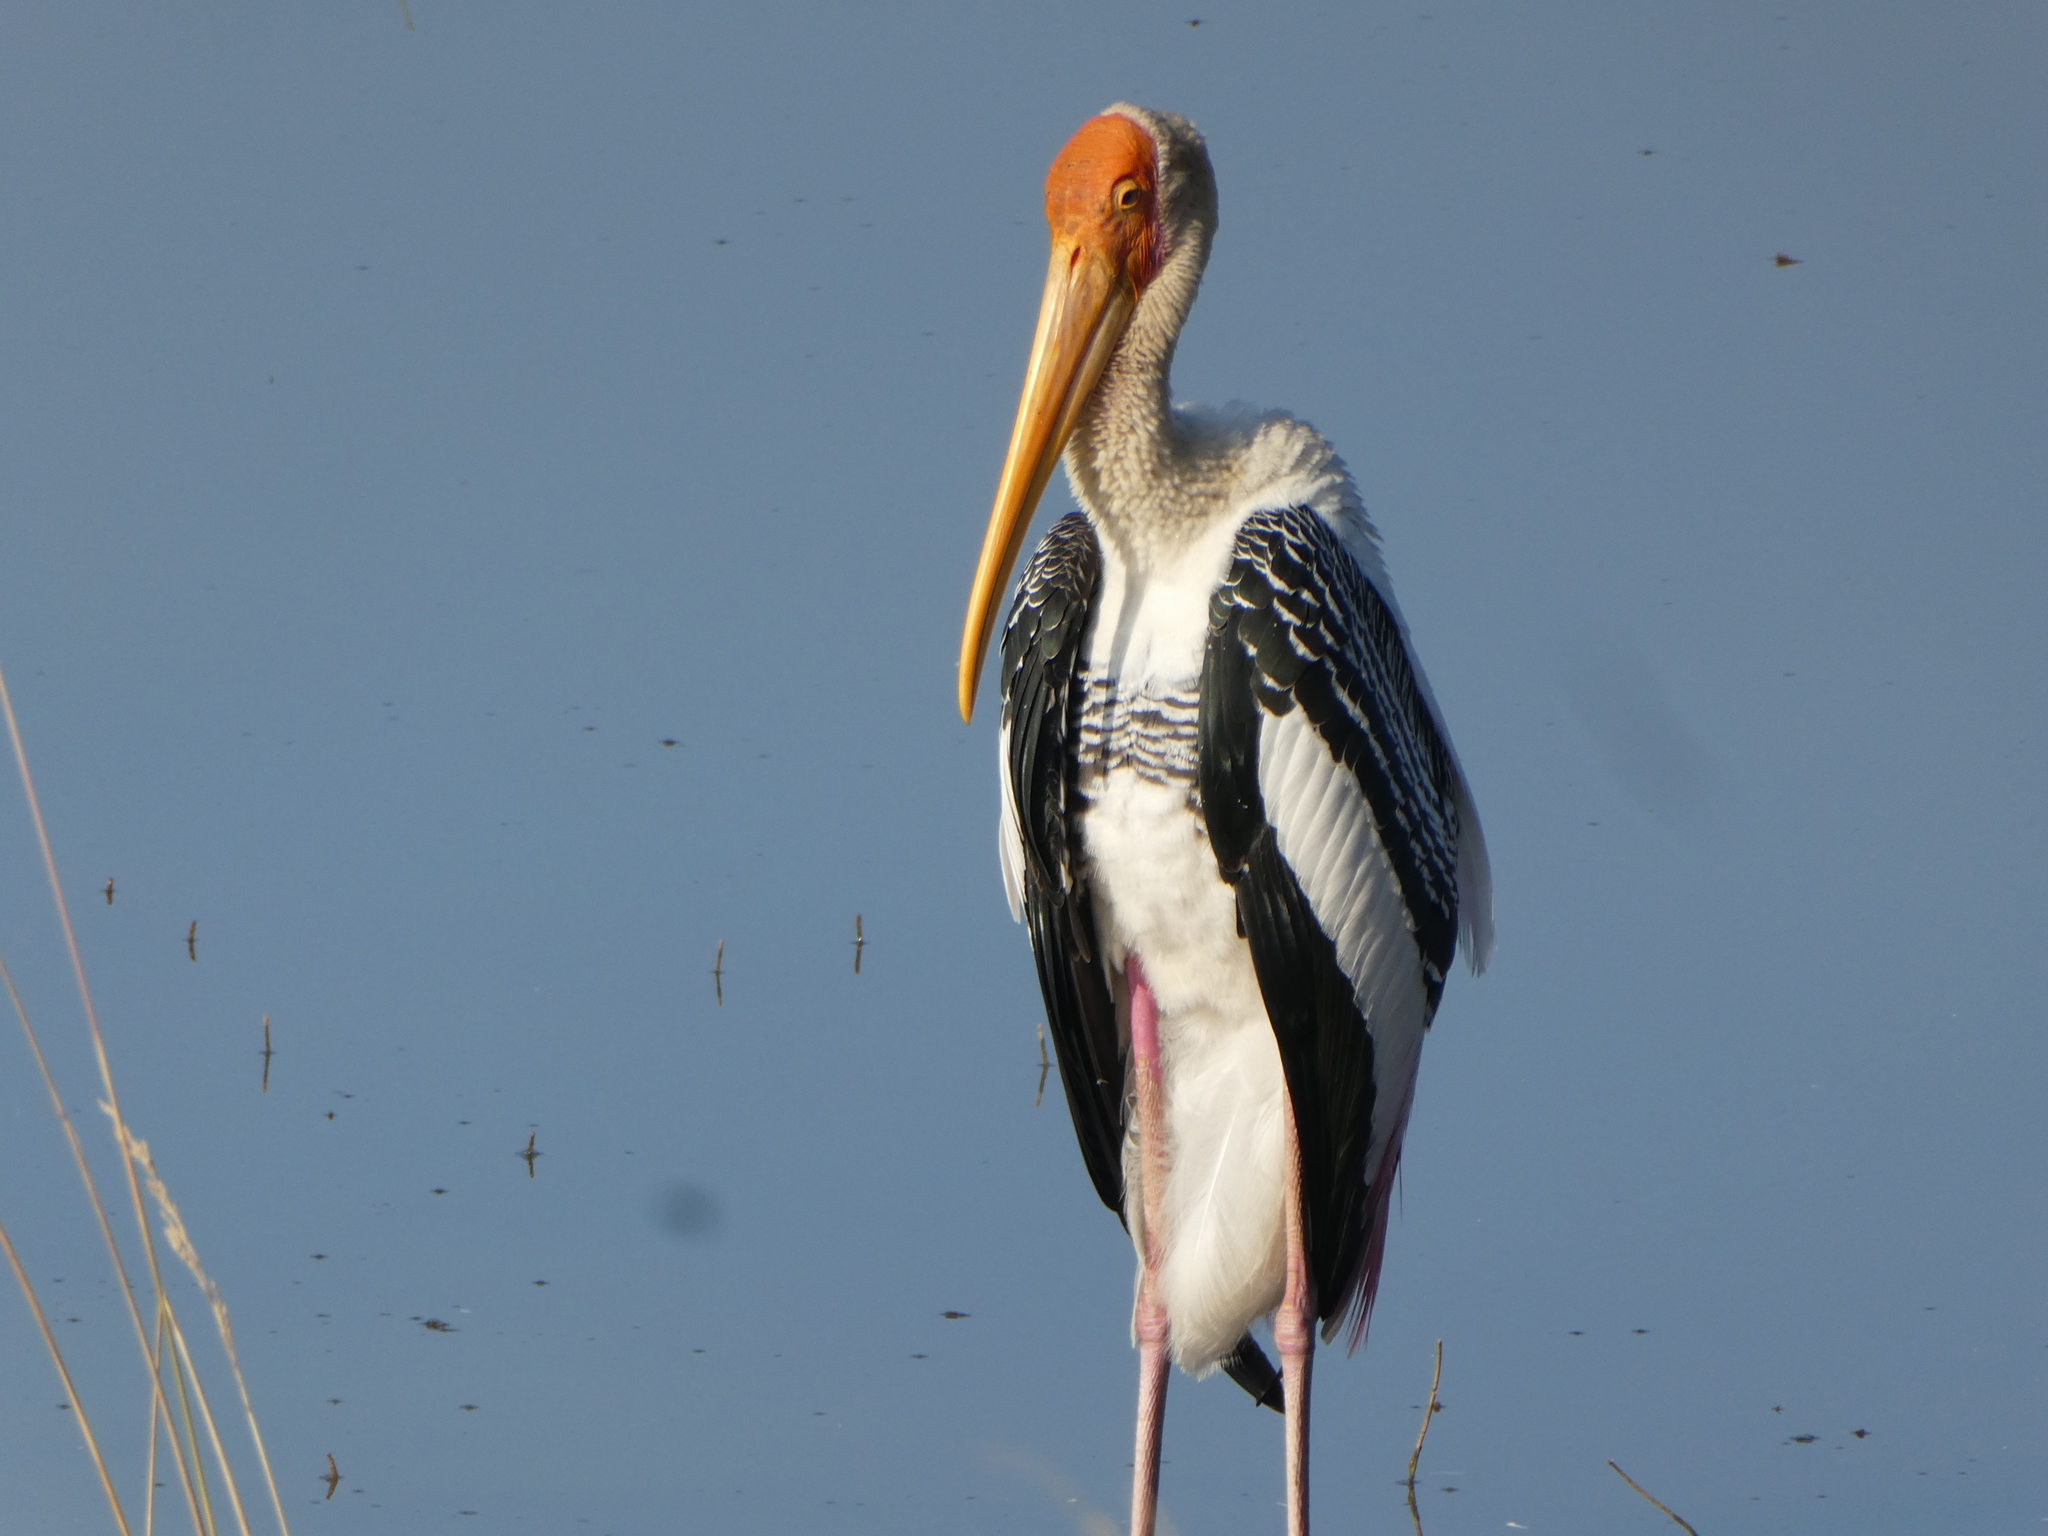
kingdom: Animalia
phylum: Chordata
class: Aves
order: Ciconiiformes
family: Ciconiidae
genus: Mycteria
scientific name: Mycteria leucocephala
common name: Painted stork
